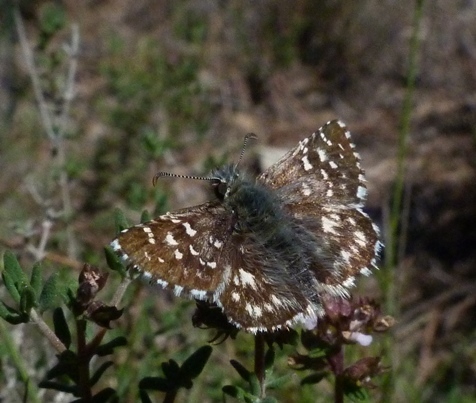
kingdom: Animalia
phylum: Arthropoda
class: Insecta
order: Lepidoptera
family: Hesperiidae
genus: Pyrgus
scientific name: Pyrgus malvoides
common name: Southern grizzled skipper
